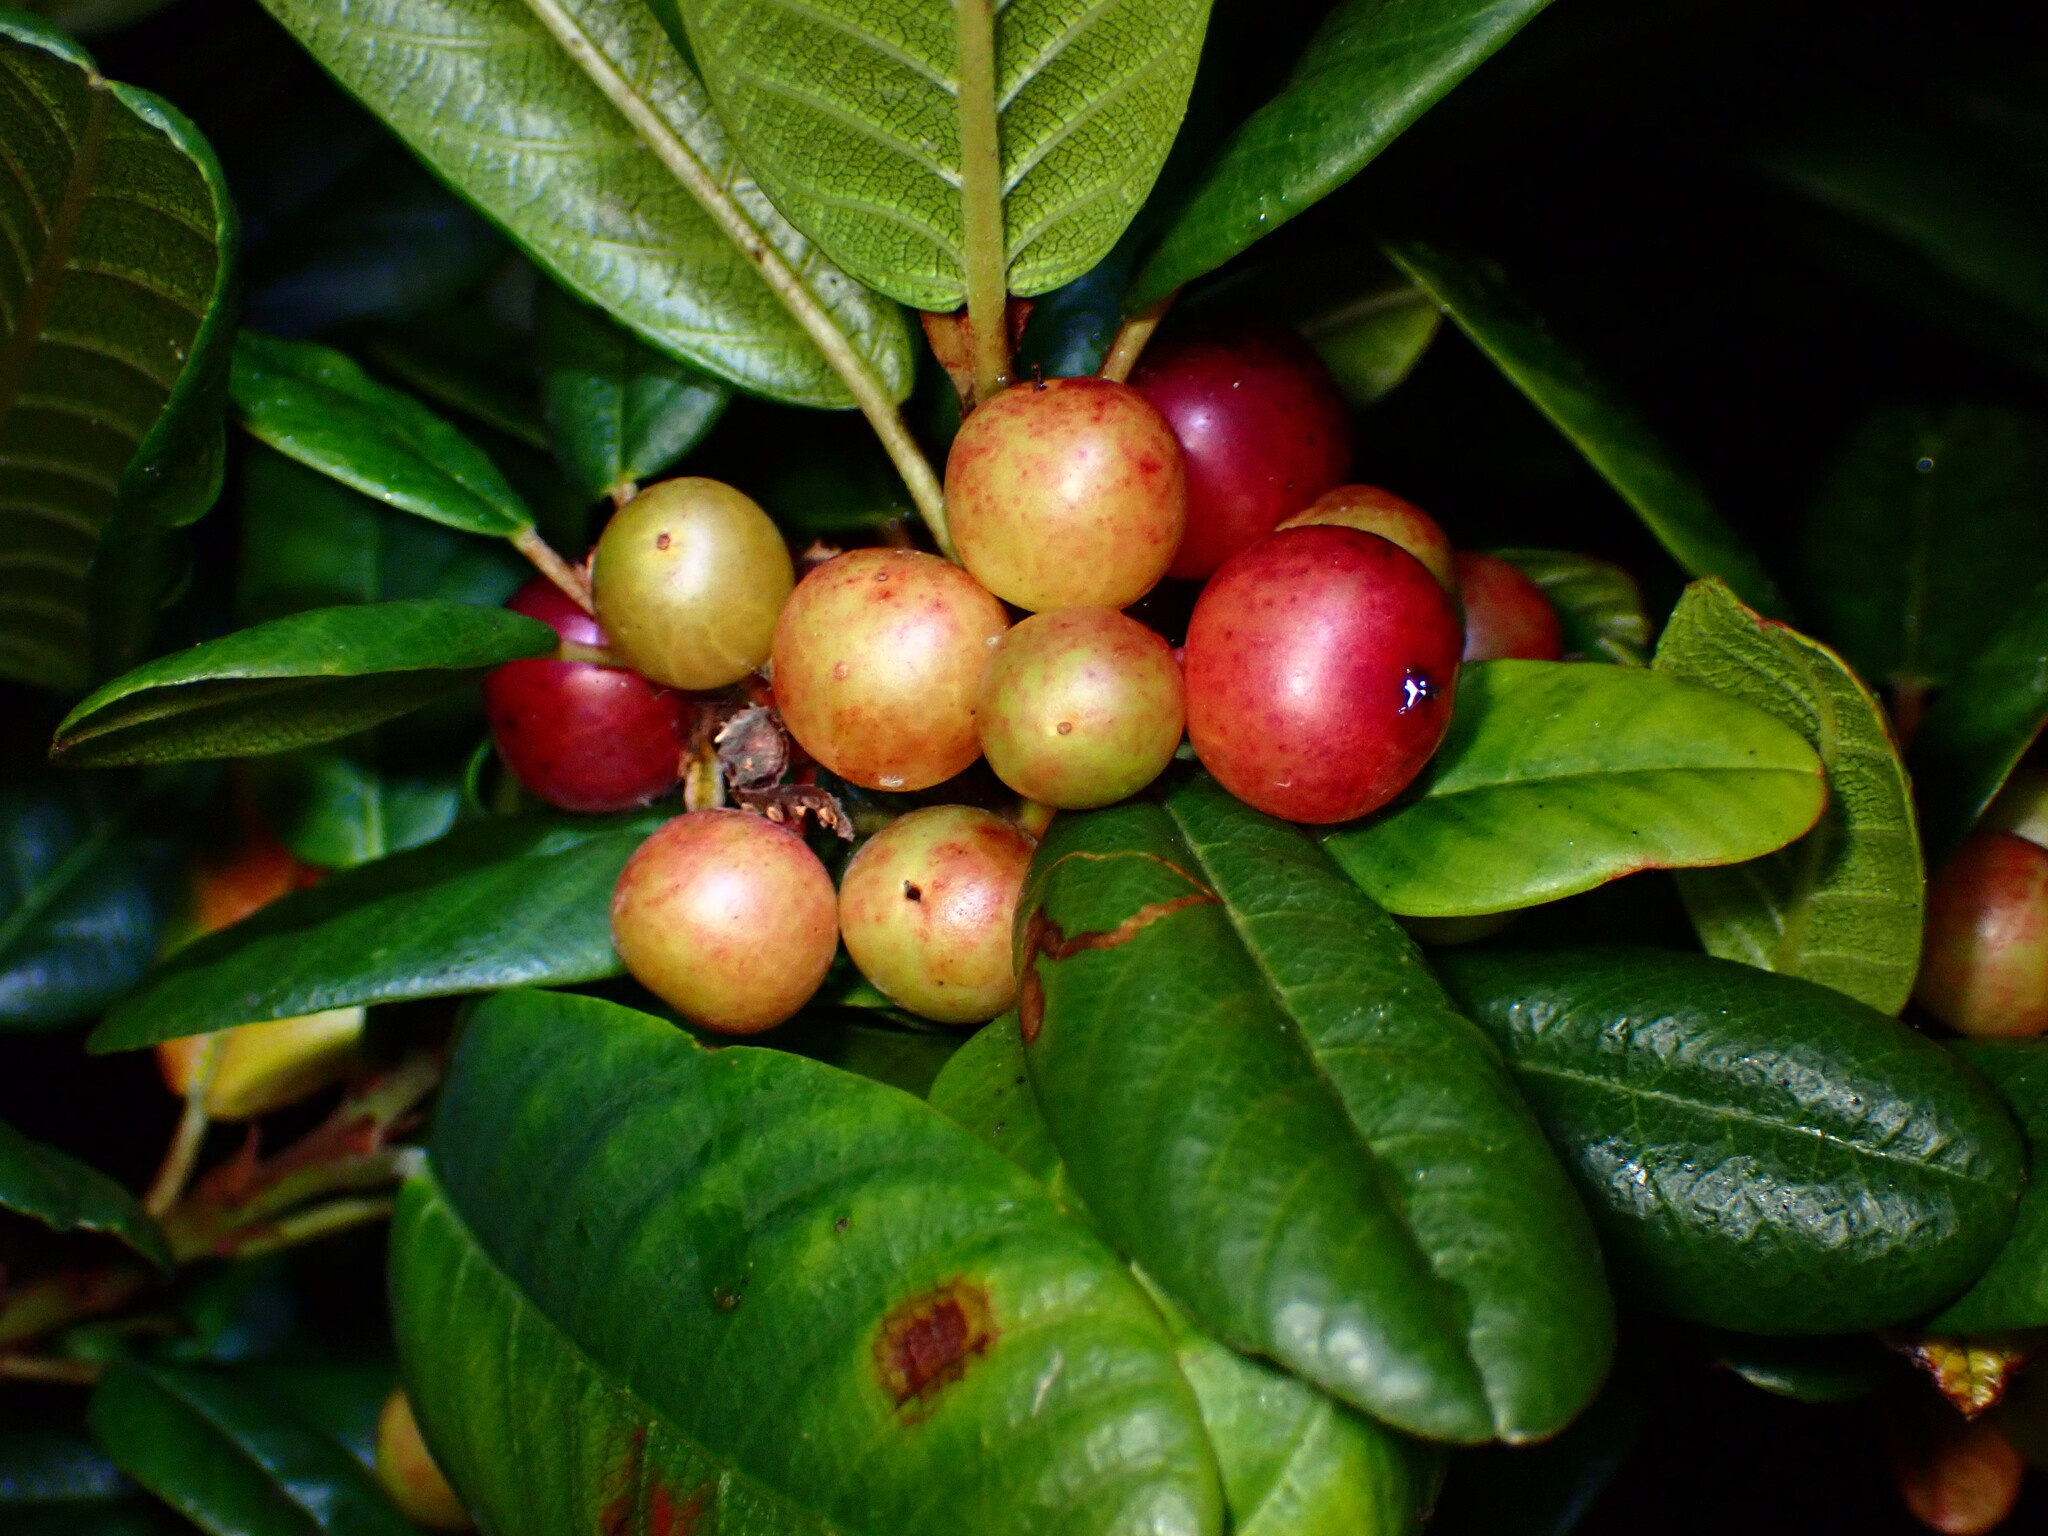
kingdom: Plantae
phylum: Tracheophyta
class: Magnoliopsida
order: Rosales
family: Rhamnaceae
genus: Frangula
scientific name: Frangula californica
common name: California buckthorn
